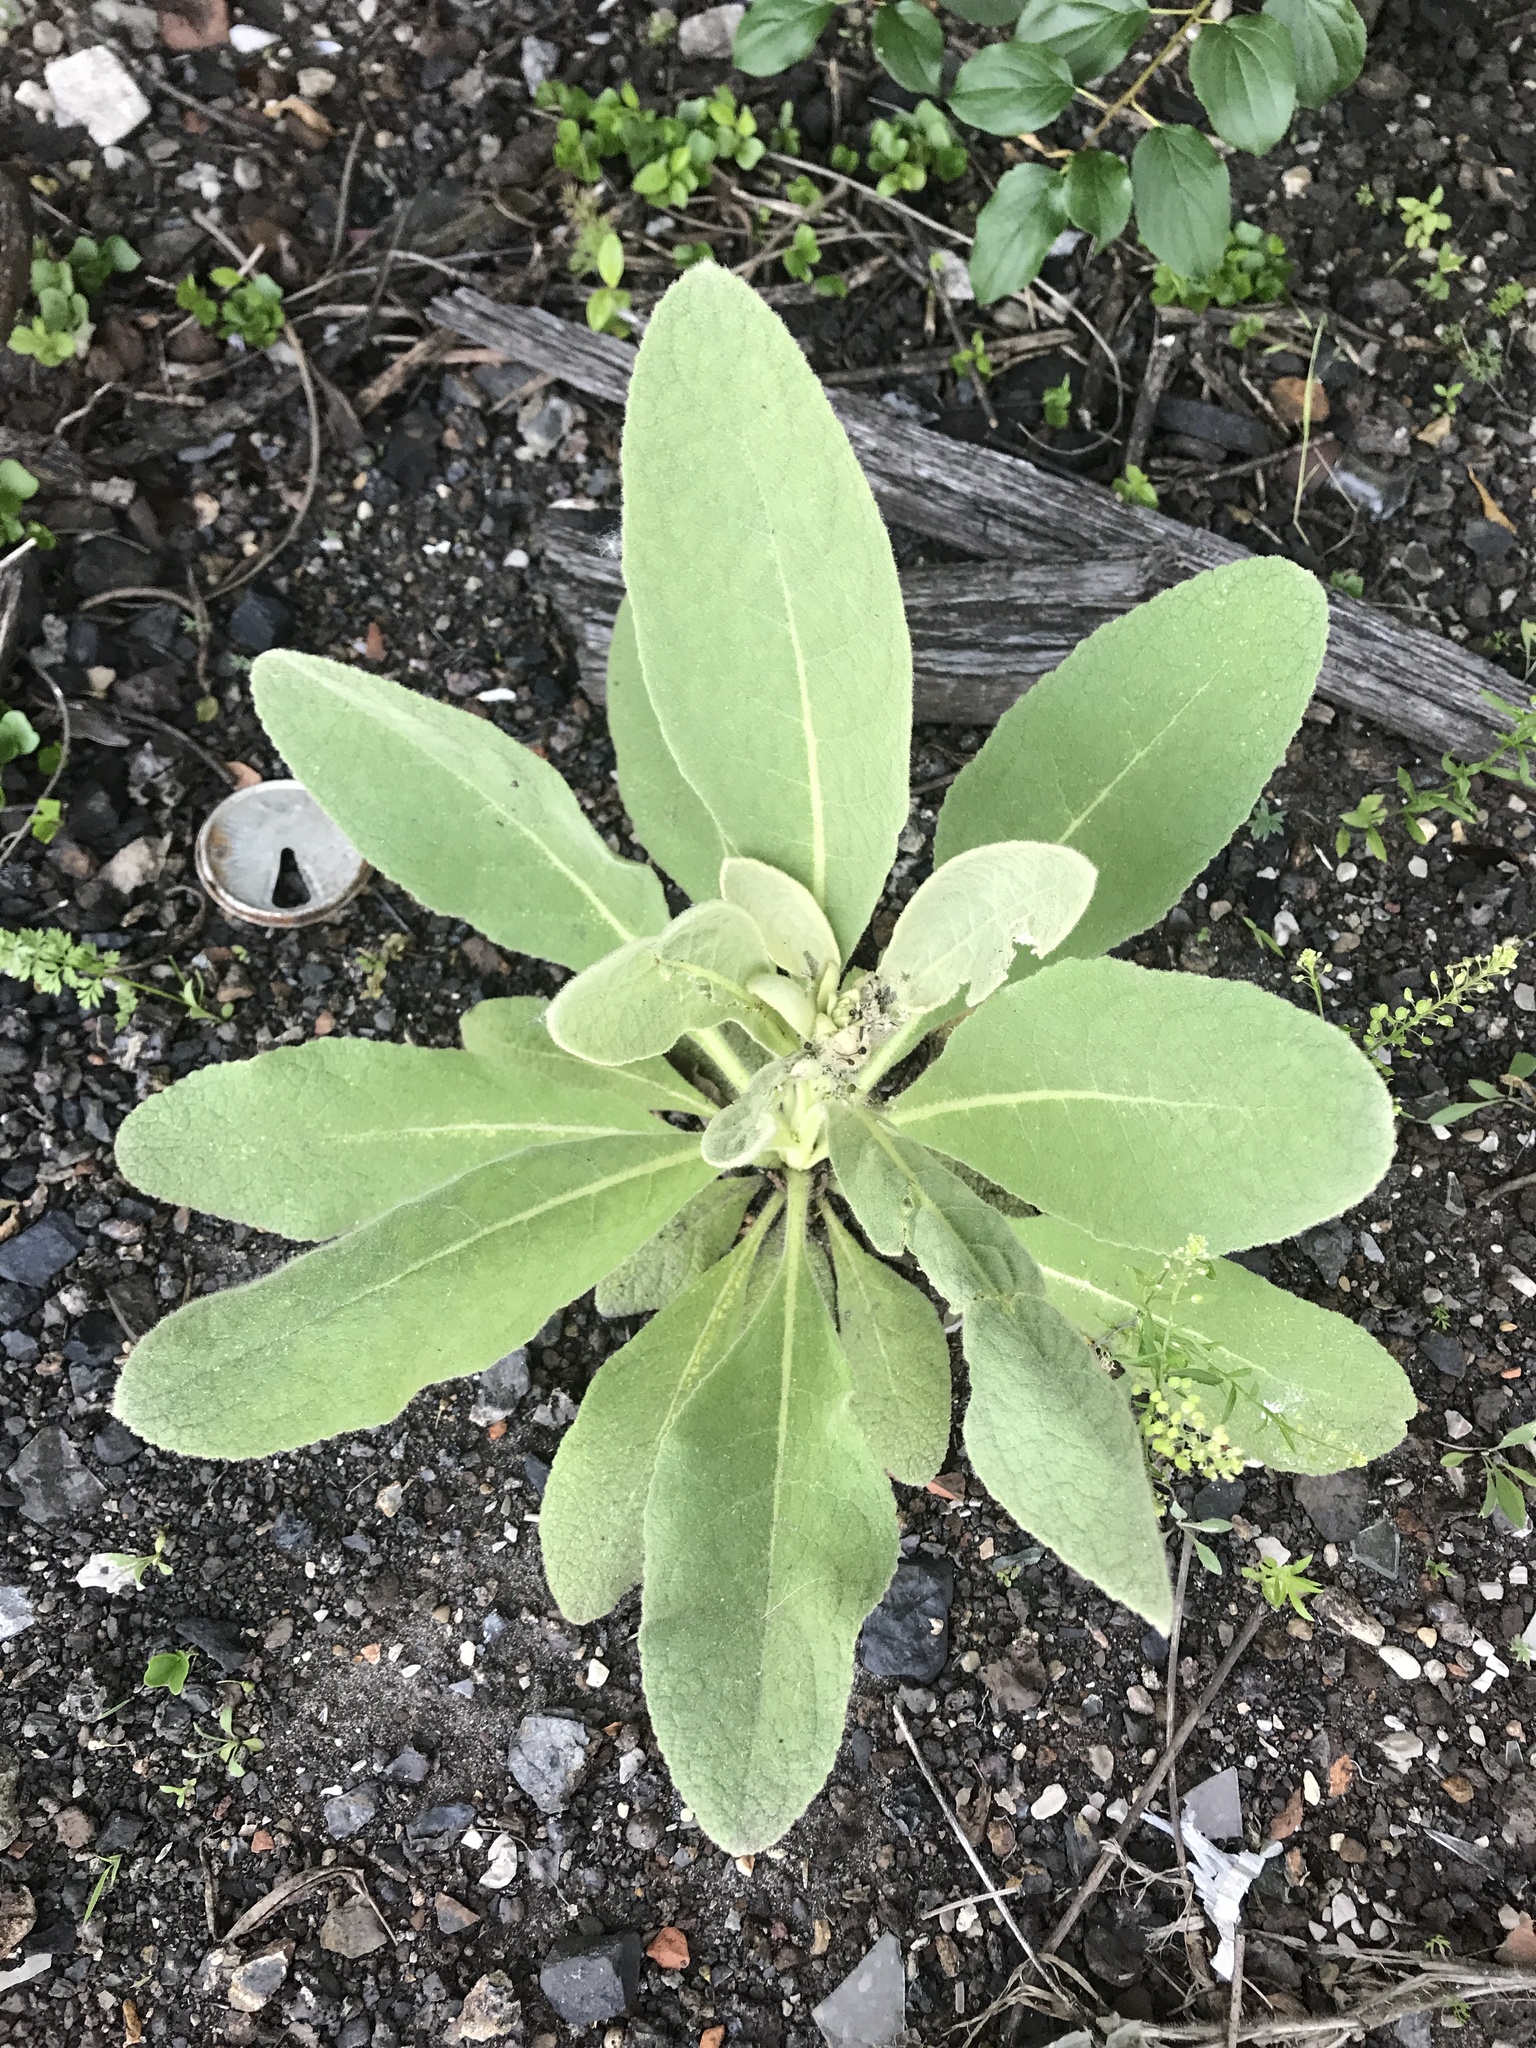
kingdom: Plantae
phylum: Tracheophyta
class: Magnoliopsida
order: Lamiales
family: Scrophulariaceae
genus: Verbascum
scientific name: Verbascum thapsus
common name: Common mullein
